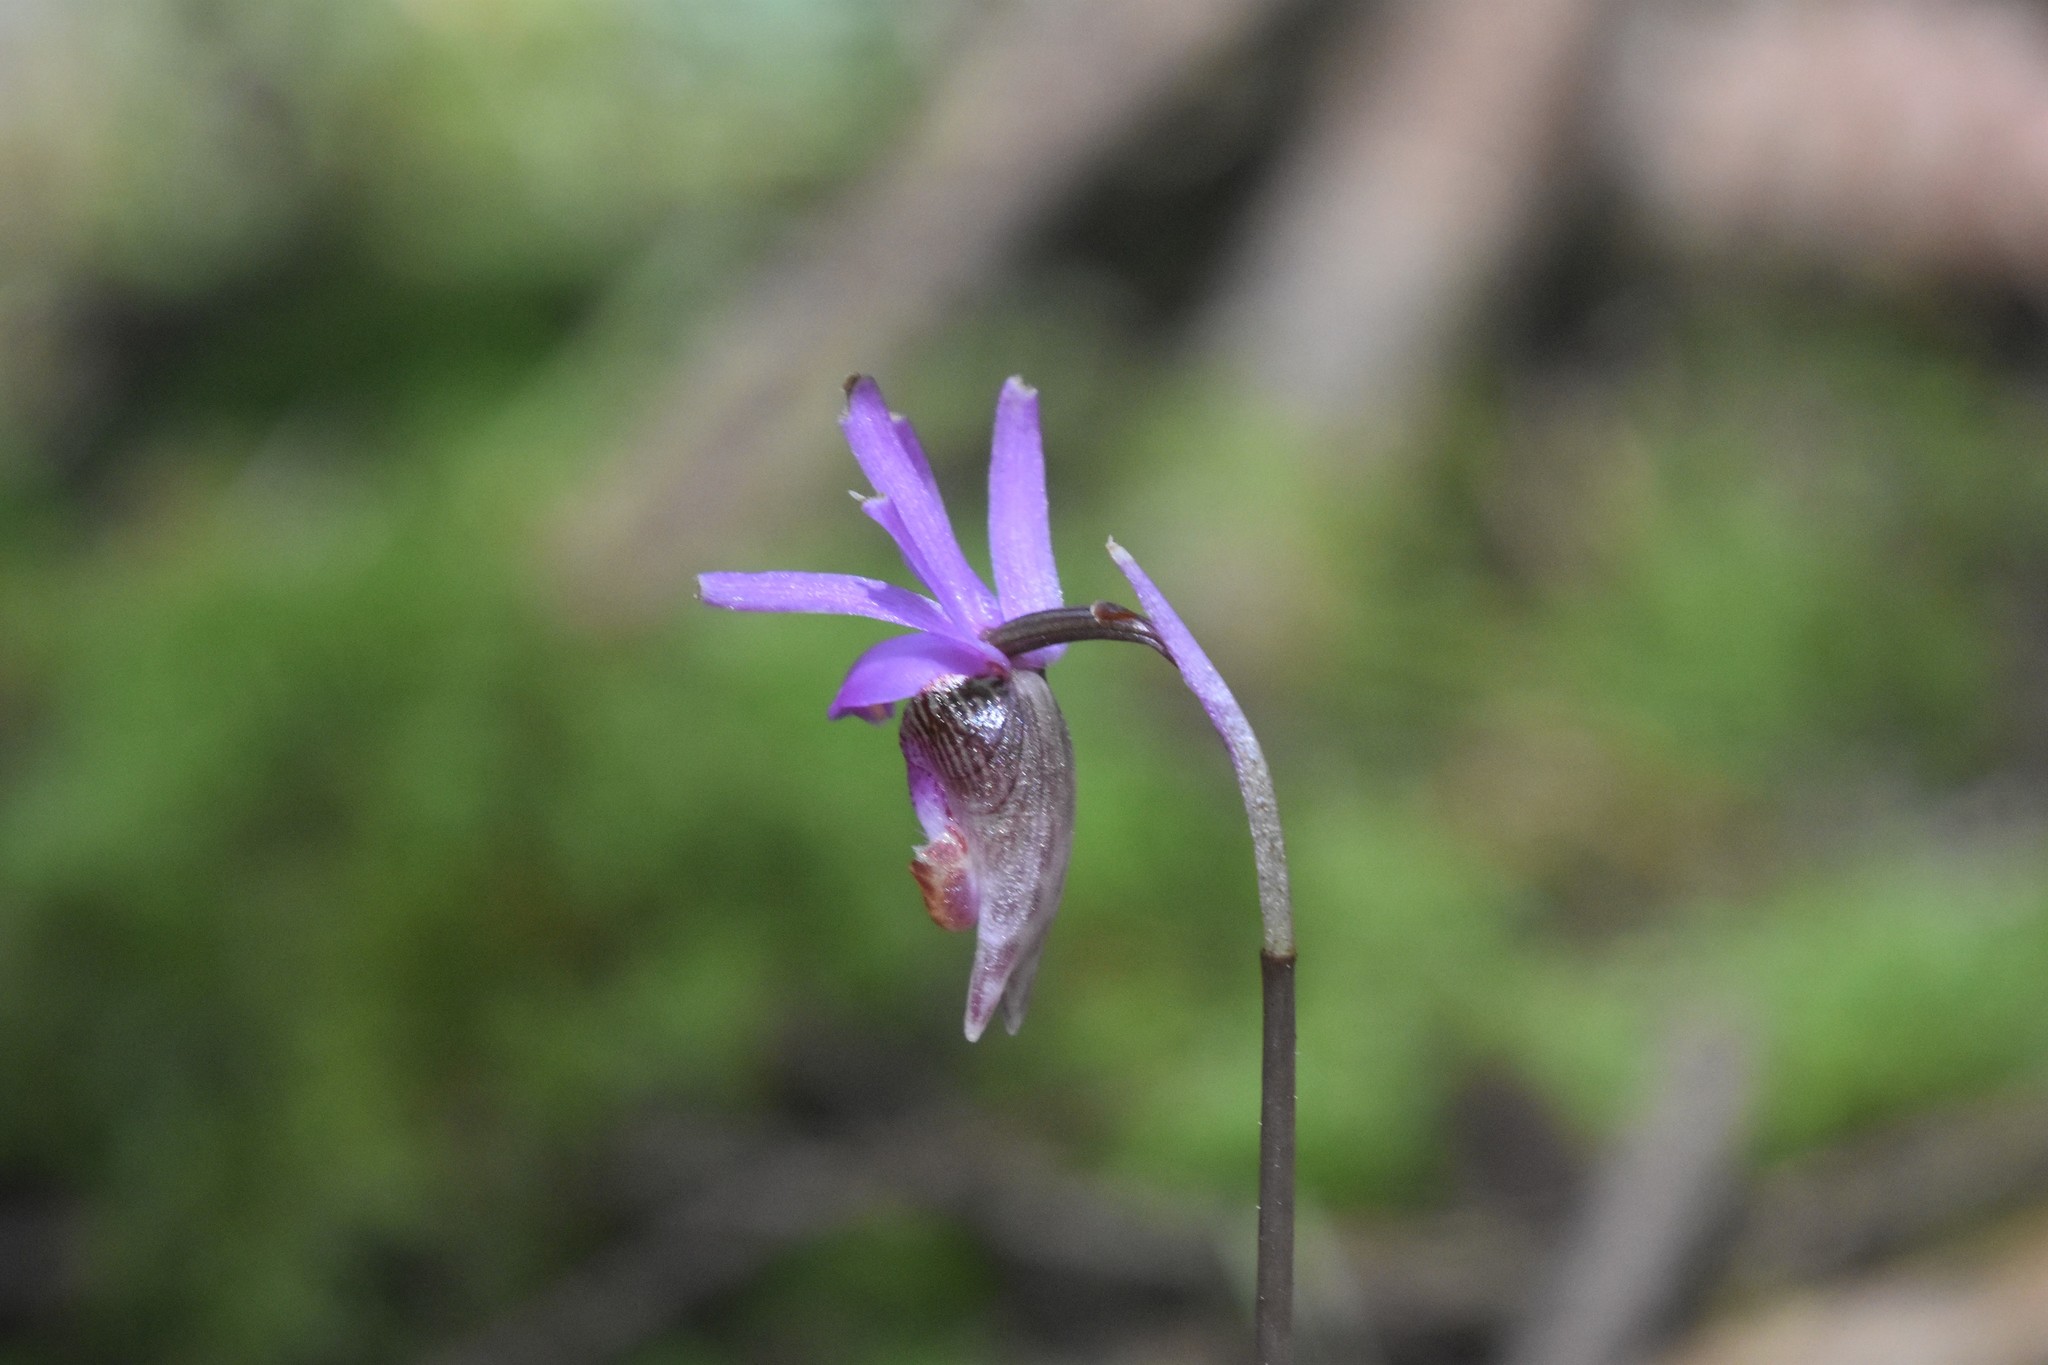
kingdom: Plantae
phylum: Tracheophyta
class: Liliopsida
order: Asparagales
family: Orchidaceae
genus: Calypso
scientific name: Calypso bulbosa
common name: Calypso
